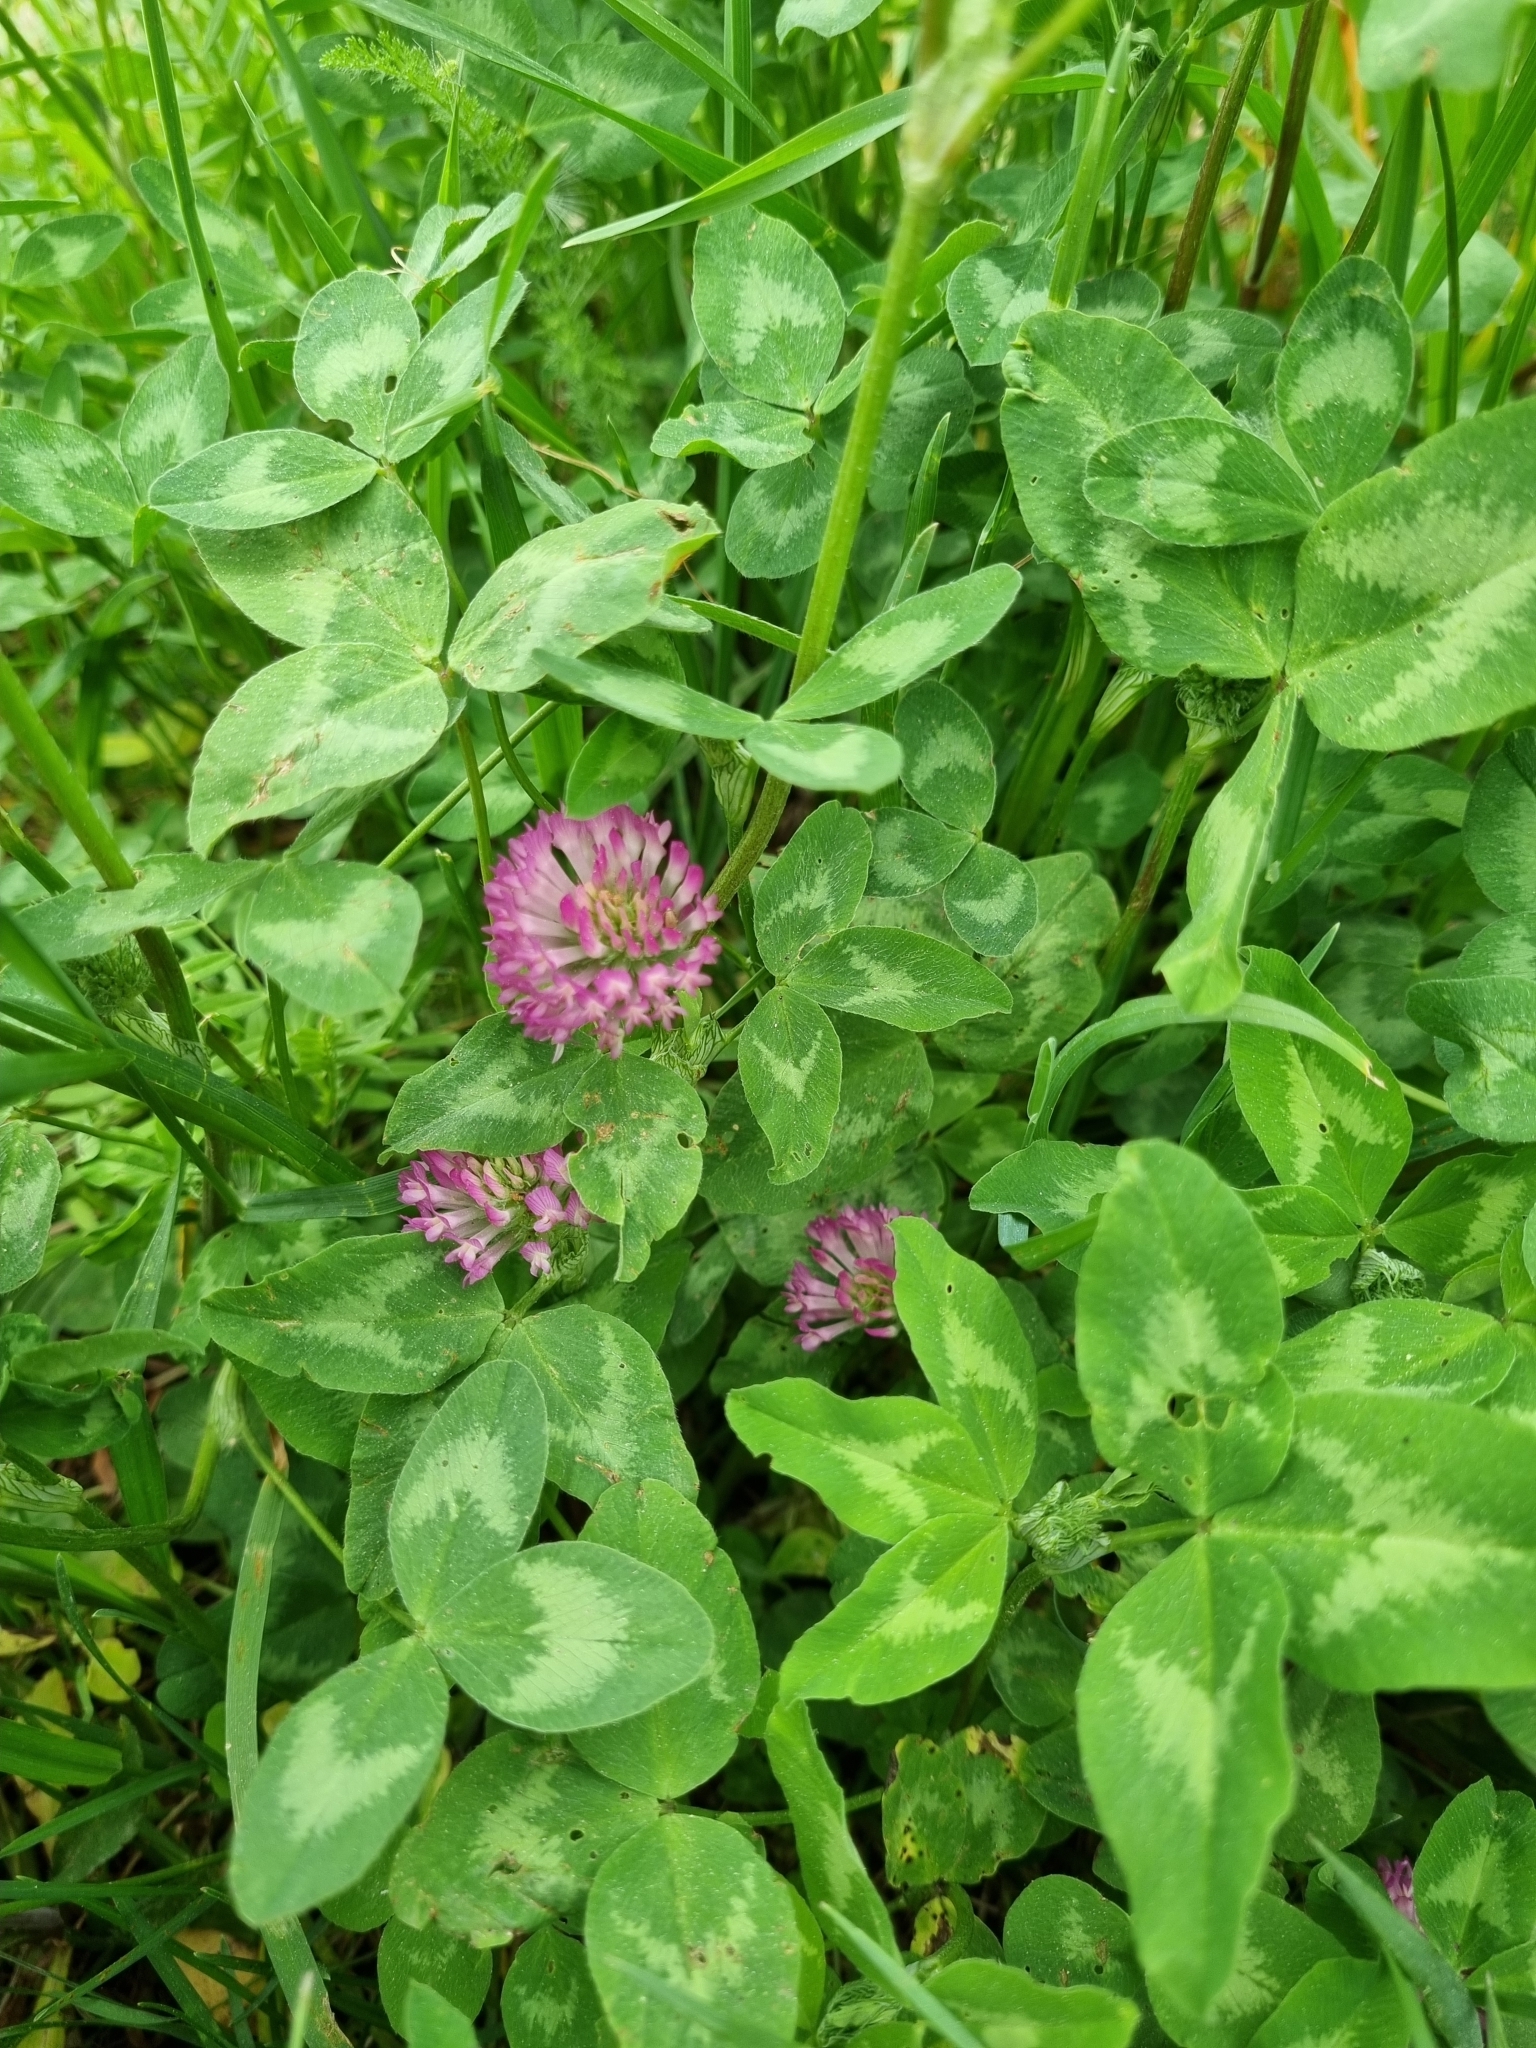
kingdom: Plantae
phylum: Tracheophyta
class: Magnoliopsida
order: Fabales
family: Fabaceae
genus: Trifolium
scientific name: Trifolium pratense
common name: Red clover
